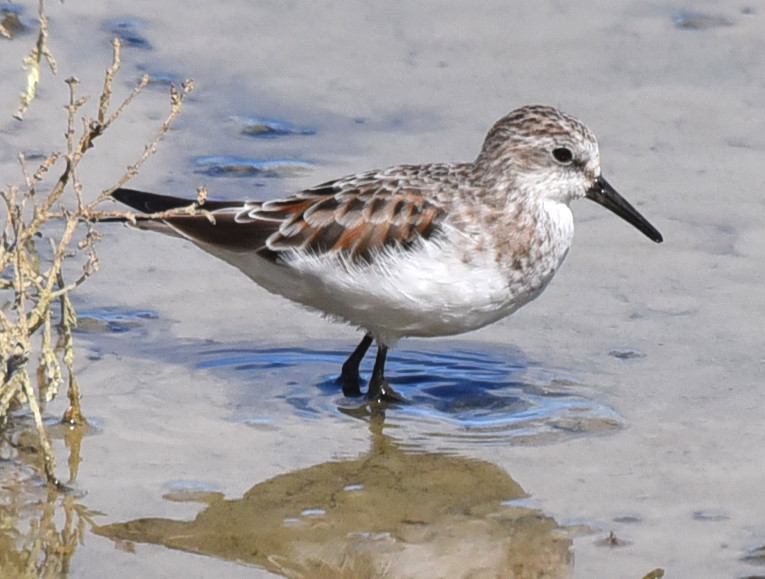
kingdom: Animalia
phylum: Chordata
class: Aves
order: Charadriiformes
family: Scolopacidae
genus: Calidris
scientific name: Calidris minuta
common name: Little stint
